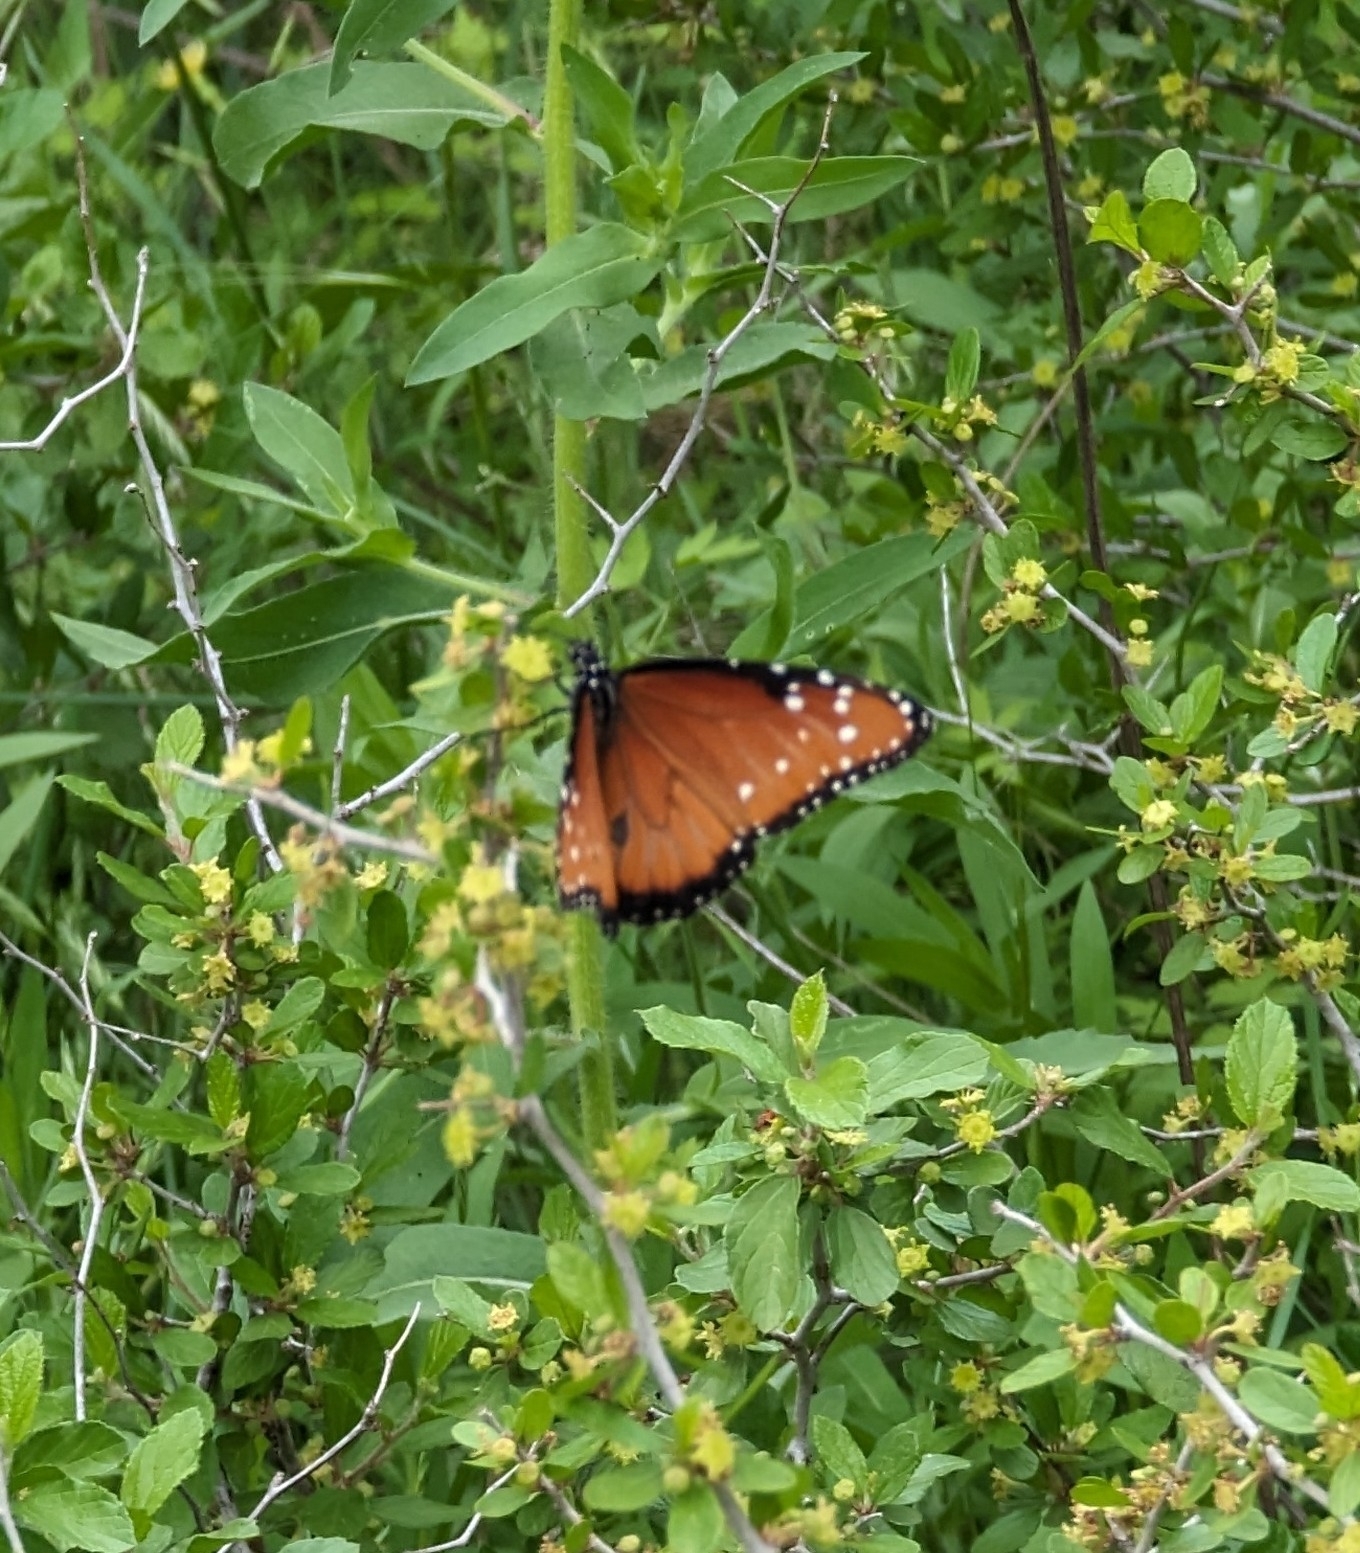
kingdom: Animalia
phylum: Arthropoda
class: Insecta
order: Lepidoptera
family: Nymphalidae
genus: Danaus
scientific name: Danaus gilippus
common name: Queen
